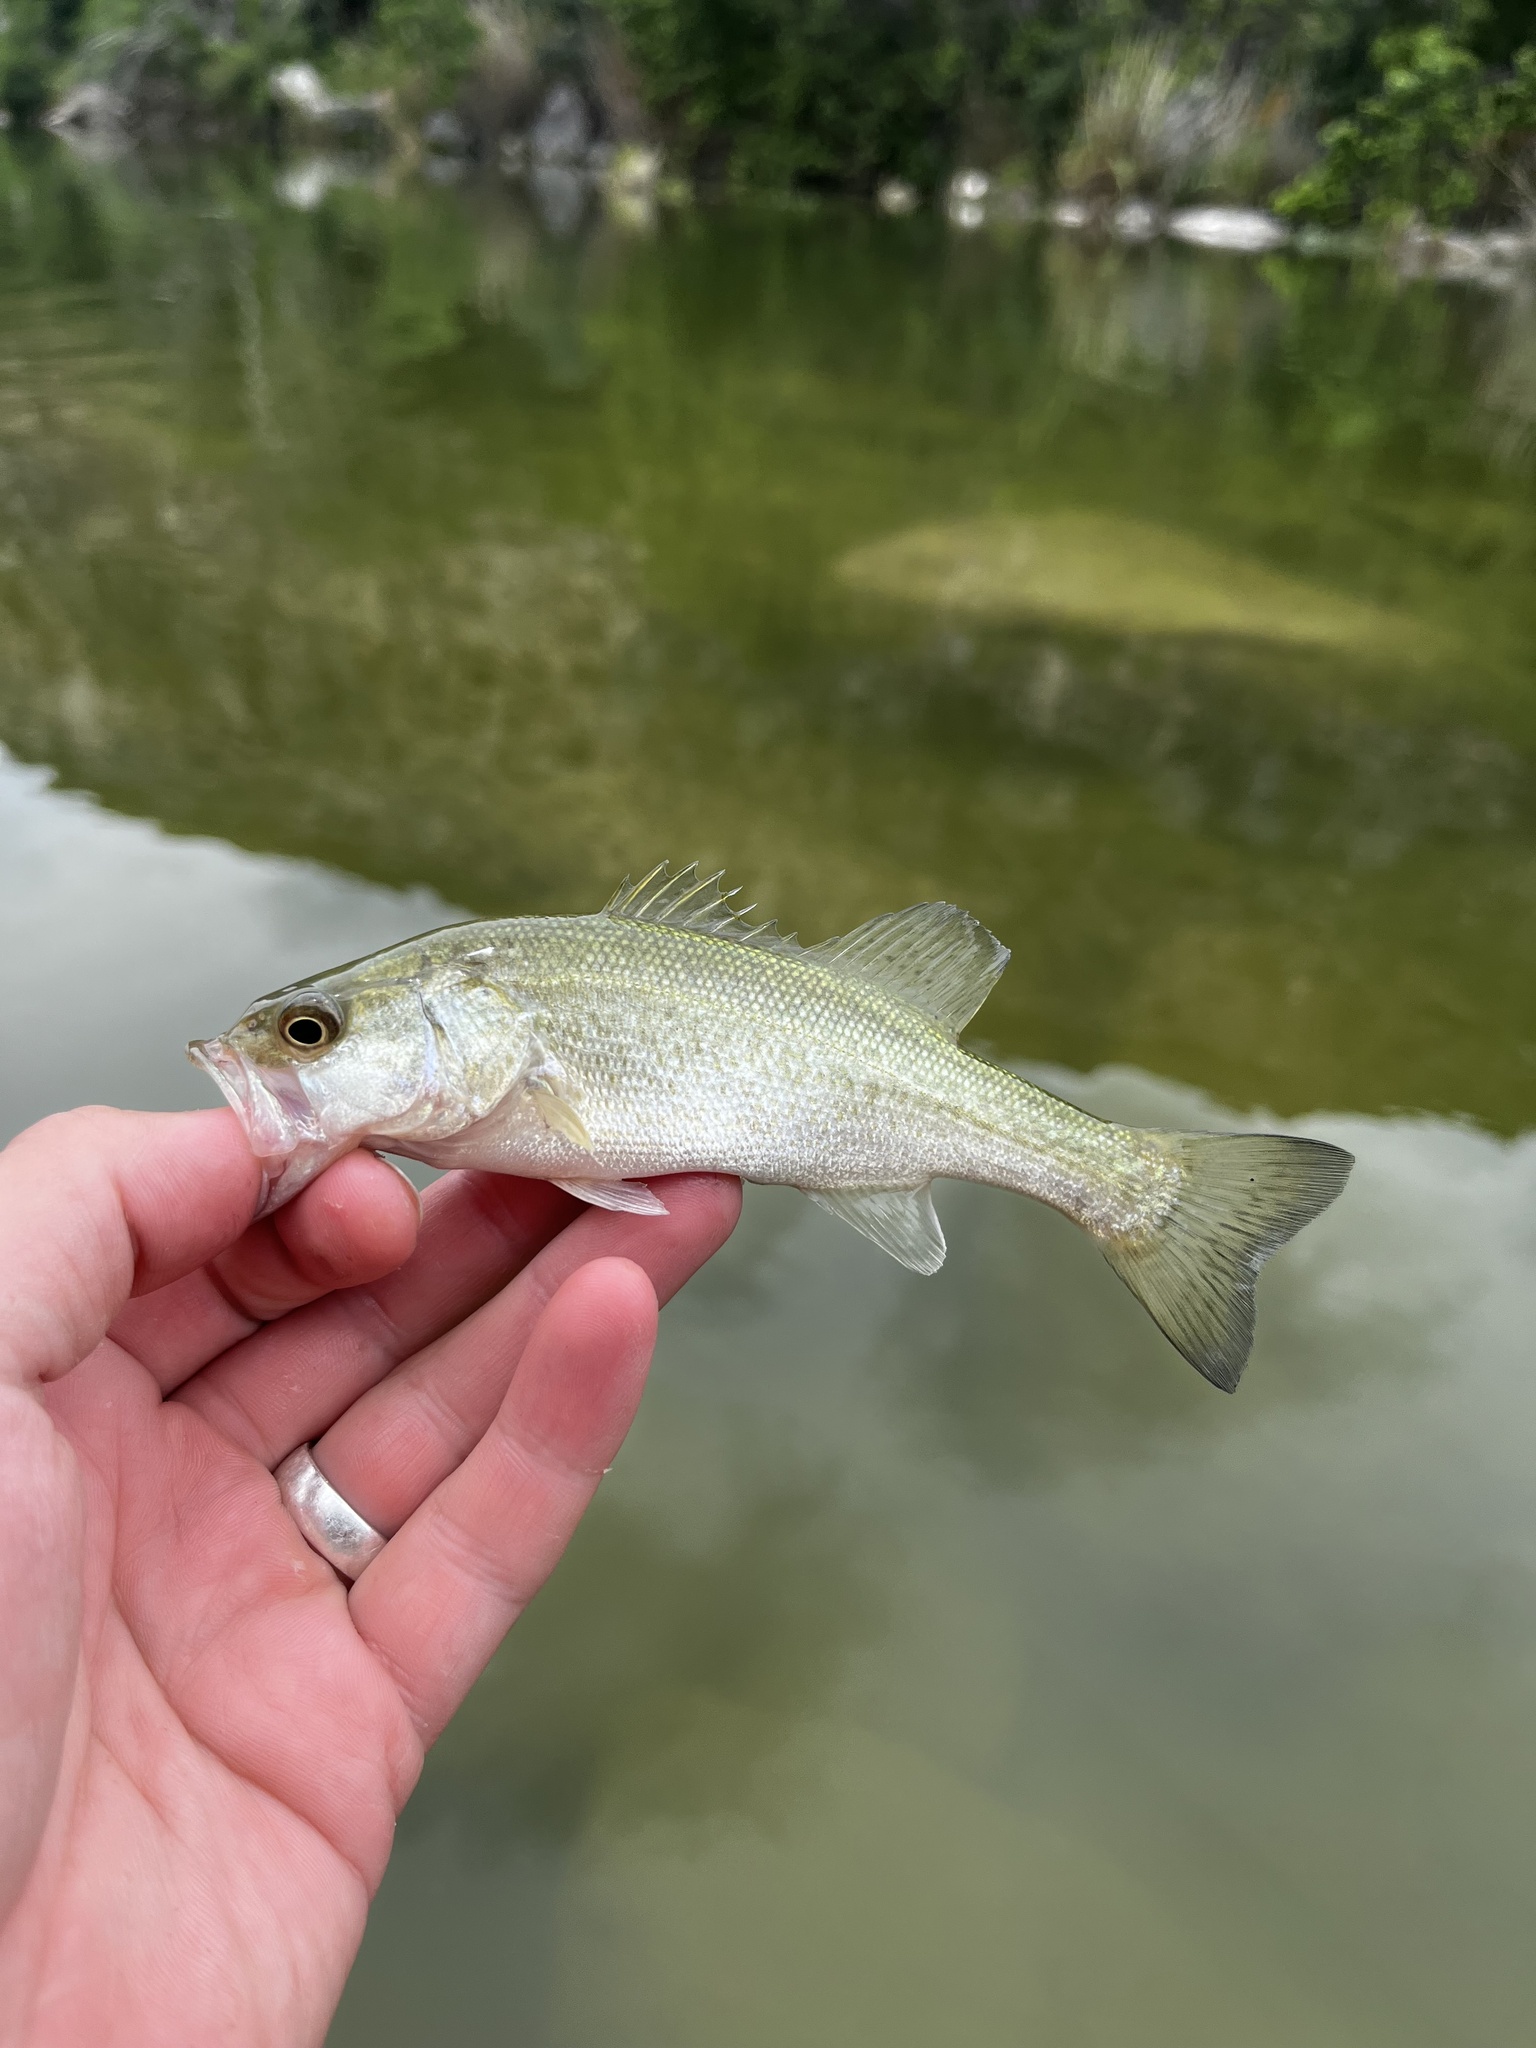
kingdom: Animalia
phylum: Chordata
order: Perciformes
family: Centrarchidae
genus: Micropterus
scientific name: Micropterus
